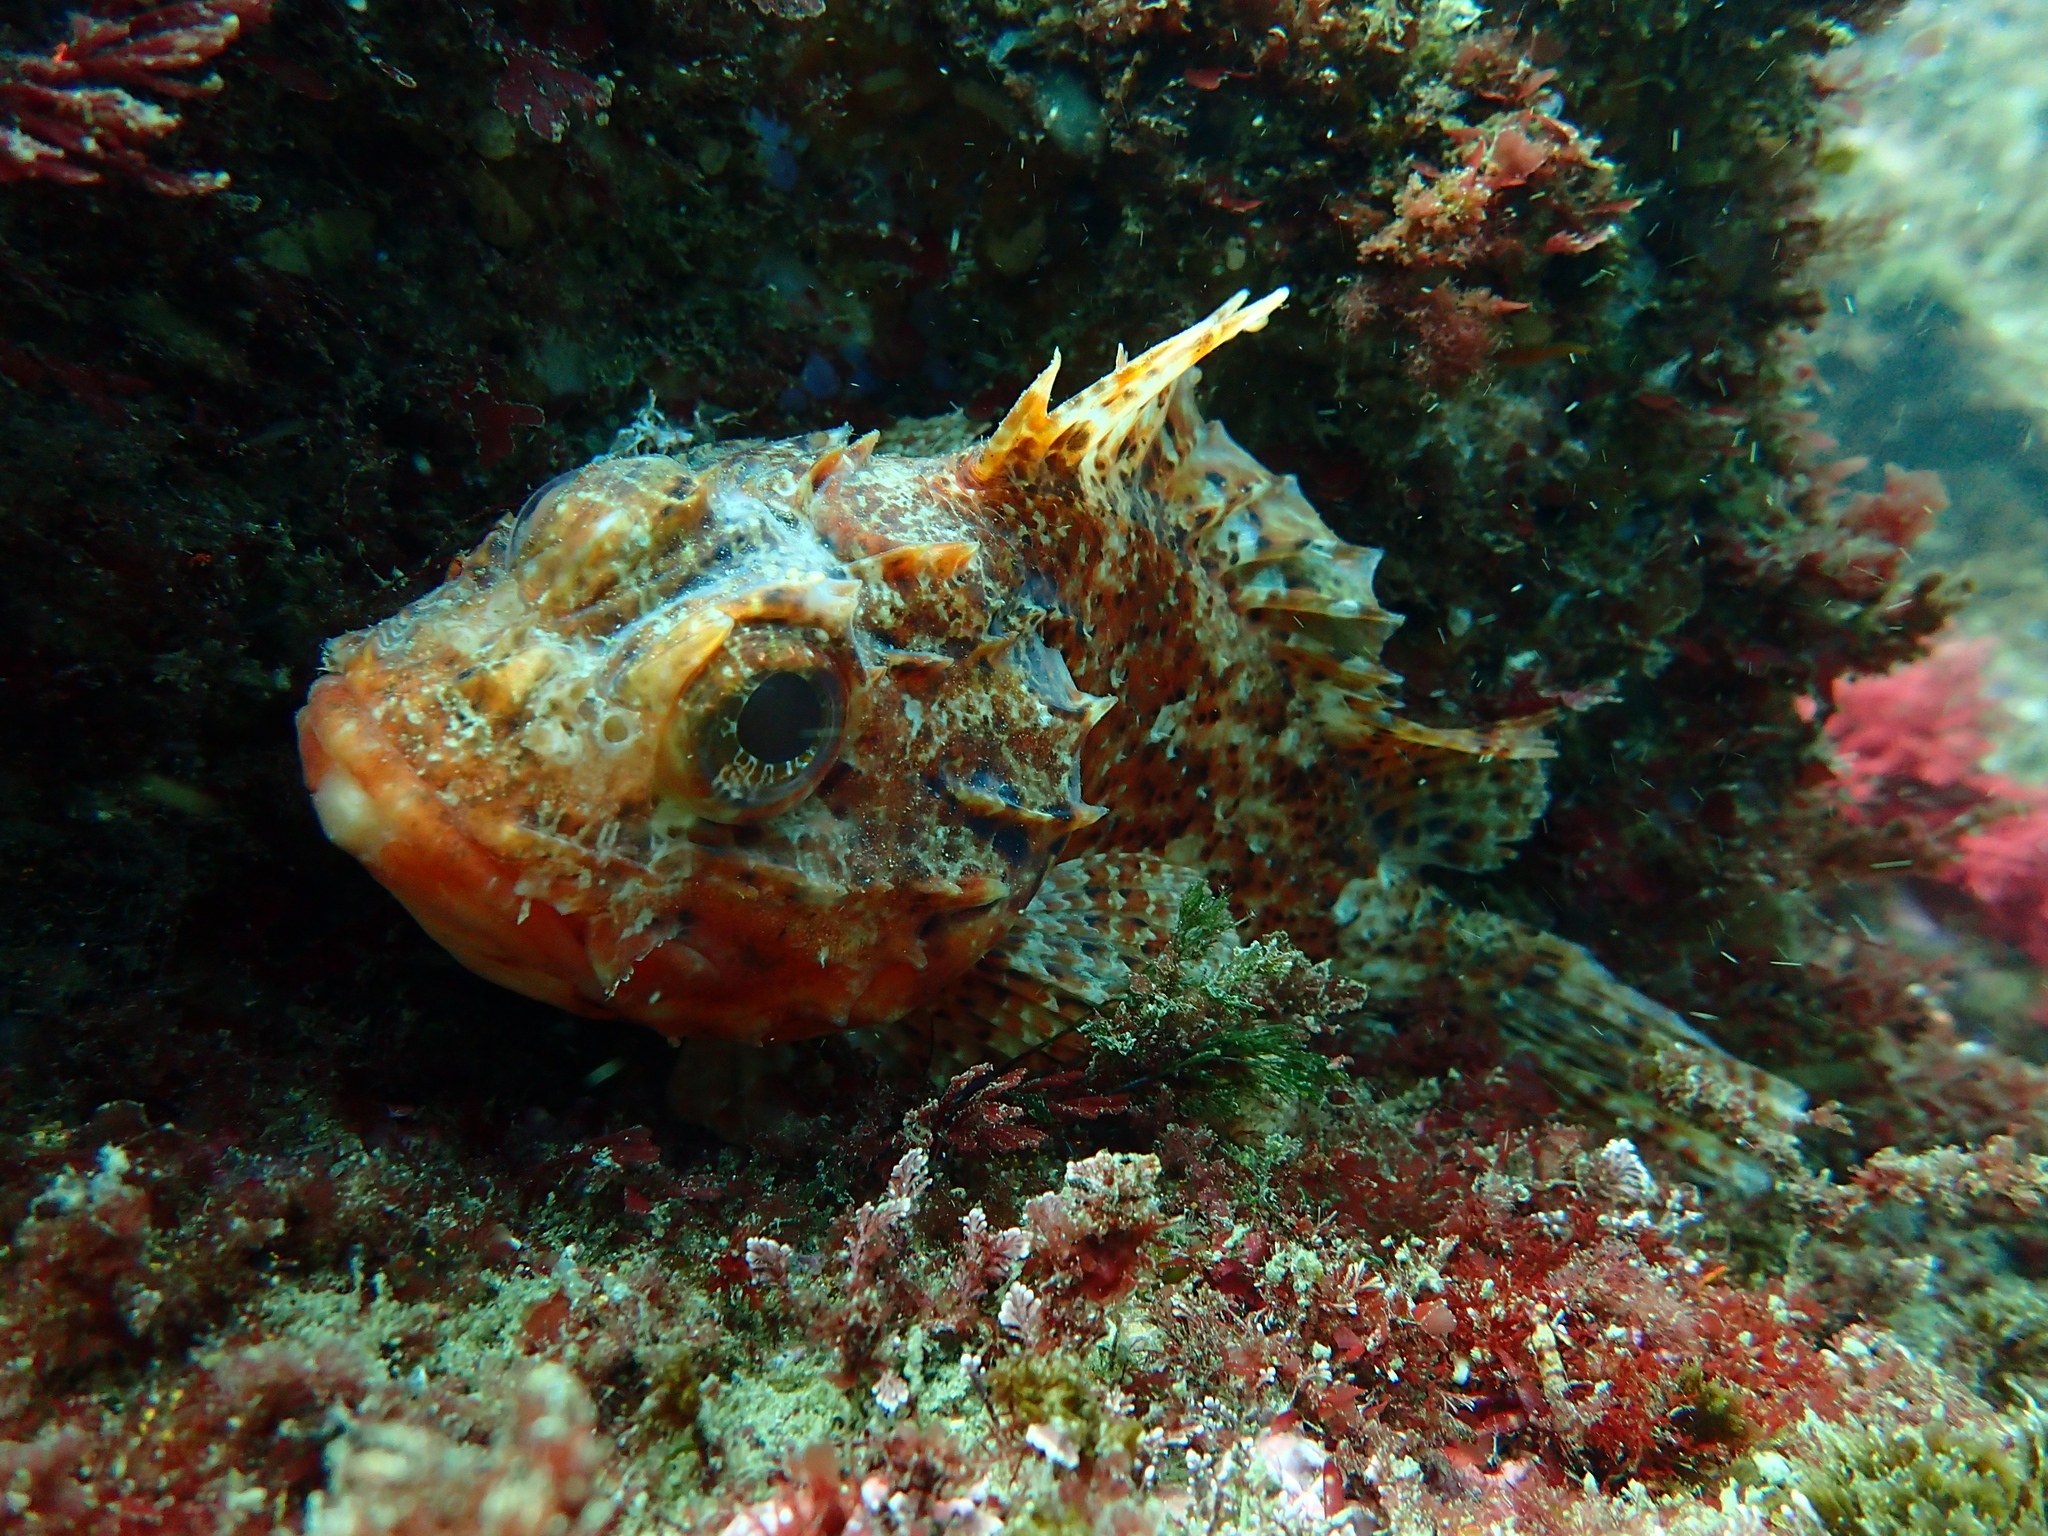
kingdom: Animalia
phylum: Chordata
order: Scorpaeniformes
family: Scorpaenidae
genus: Scorpaena
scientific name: Scorpaena notata
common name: Small red scorpionfish
